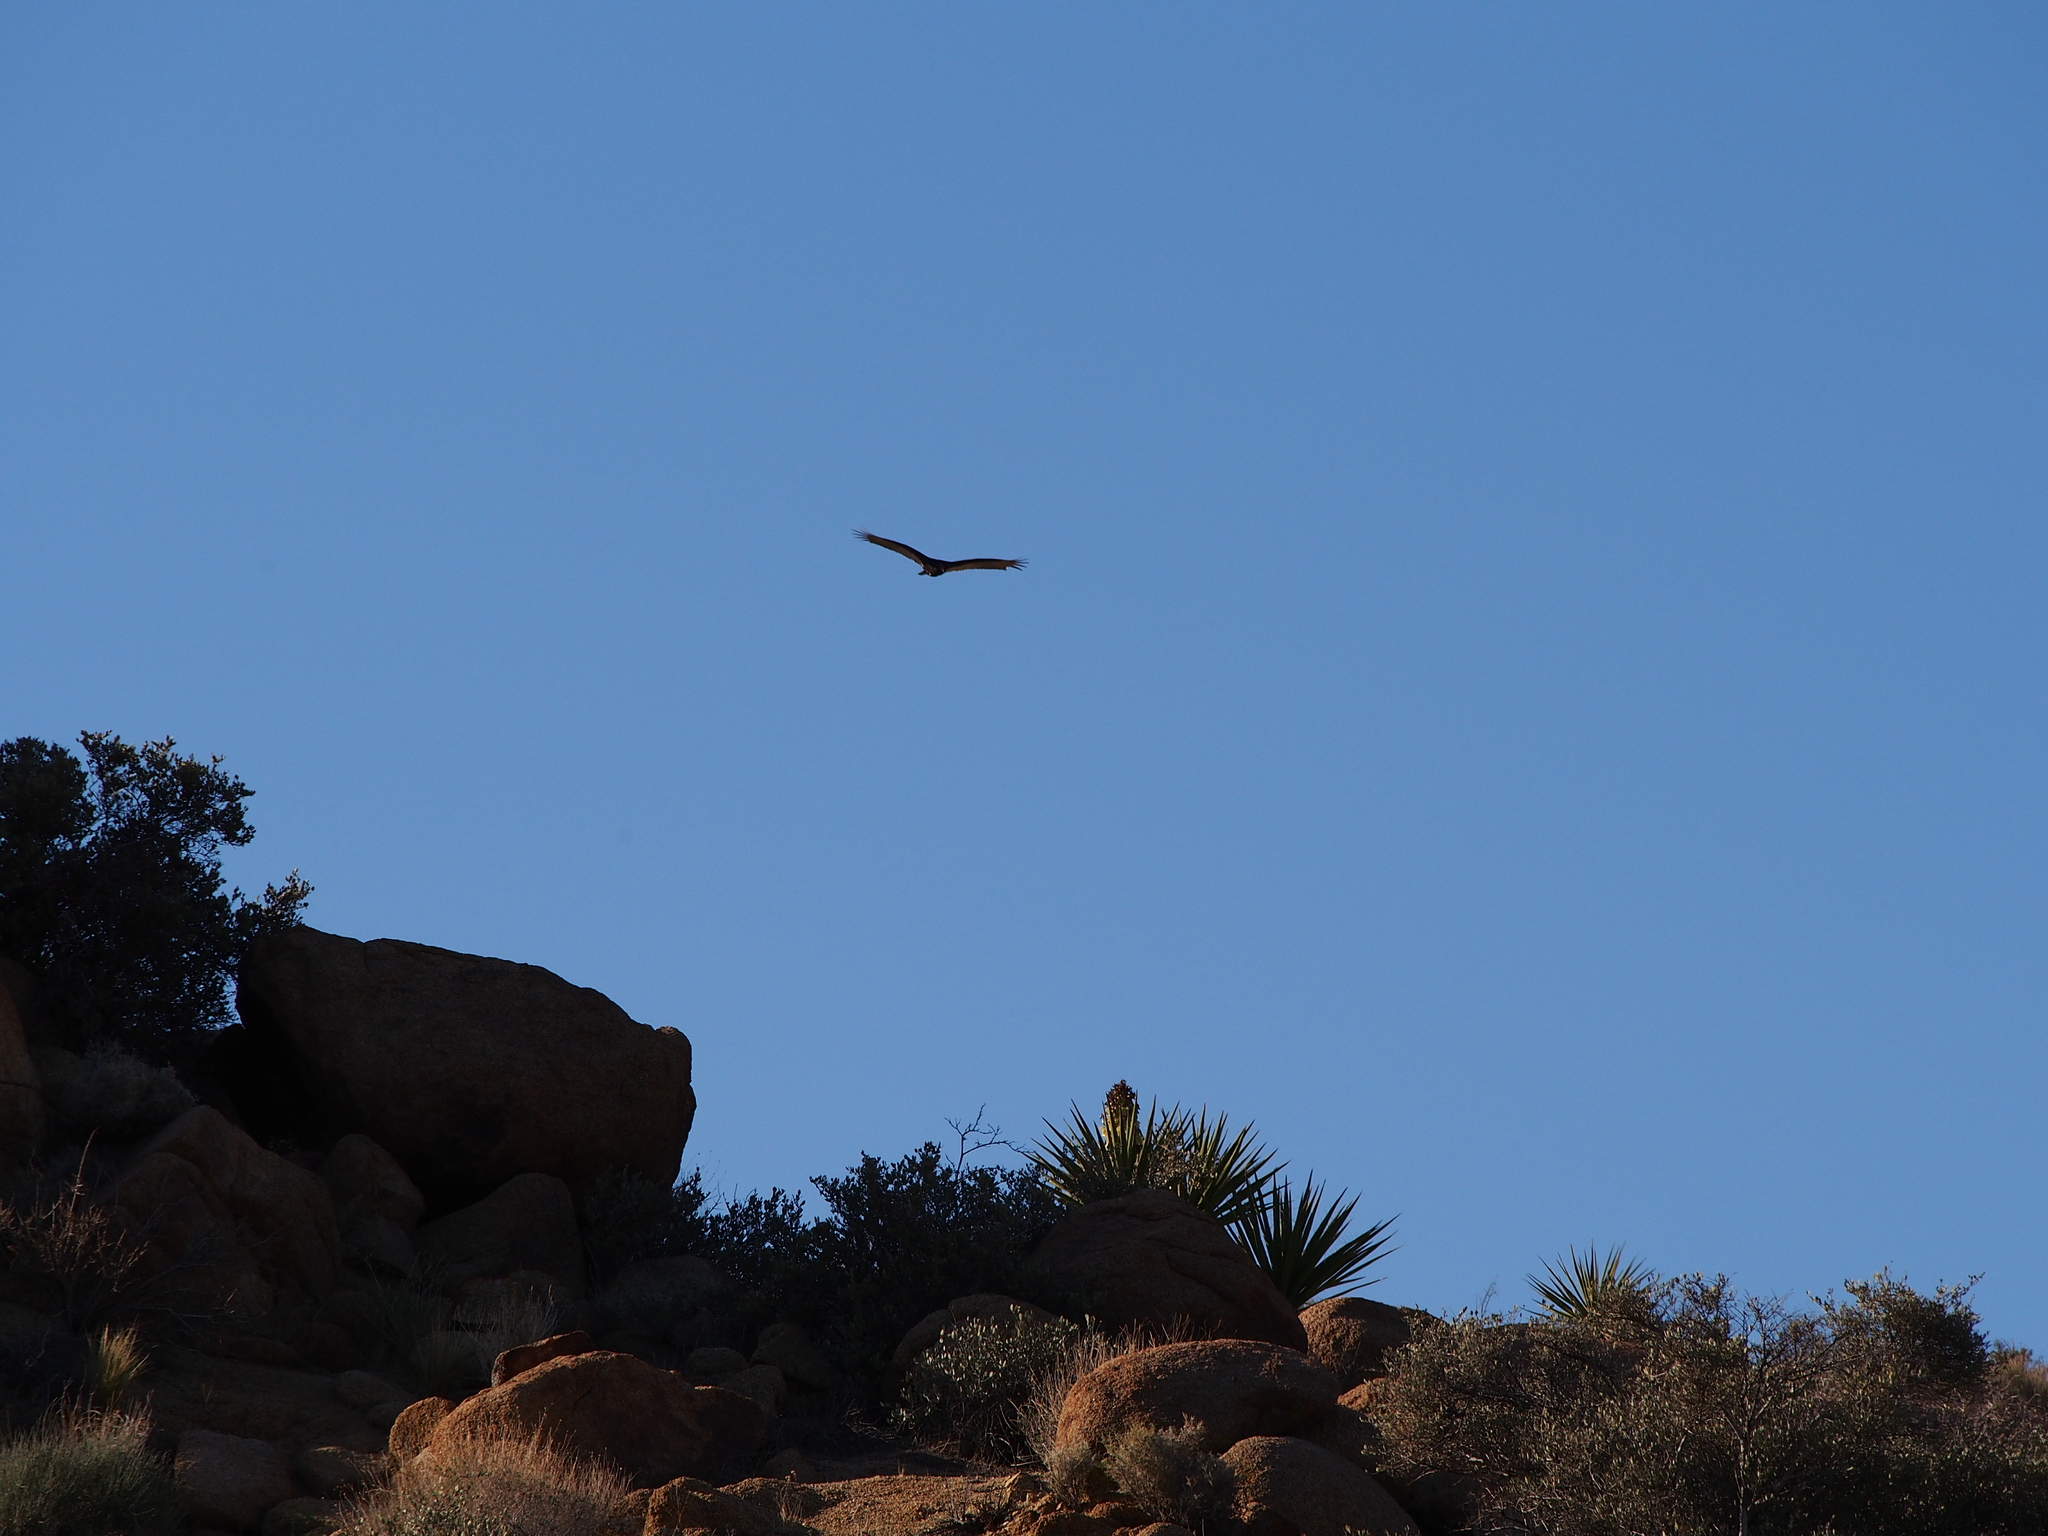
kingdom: Animalia
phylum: Chordata
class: Aves
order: Accipitriformes
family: Cathartidae
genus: Cathartes
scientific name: Cathartes aura
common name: Turkey vulture
